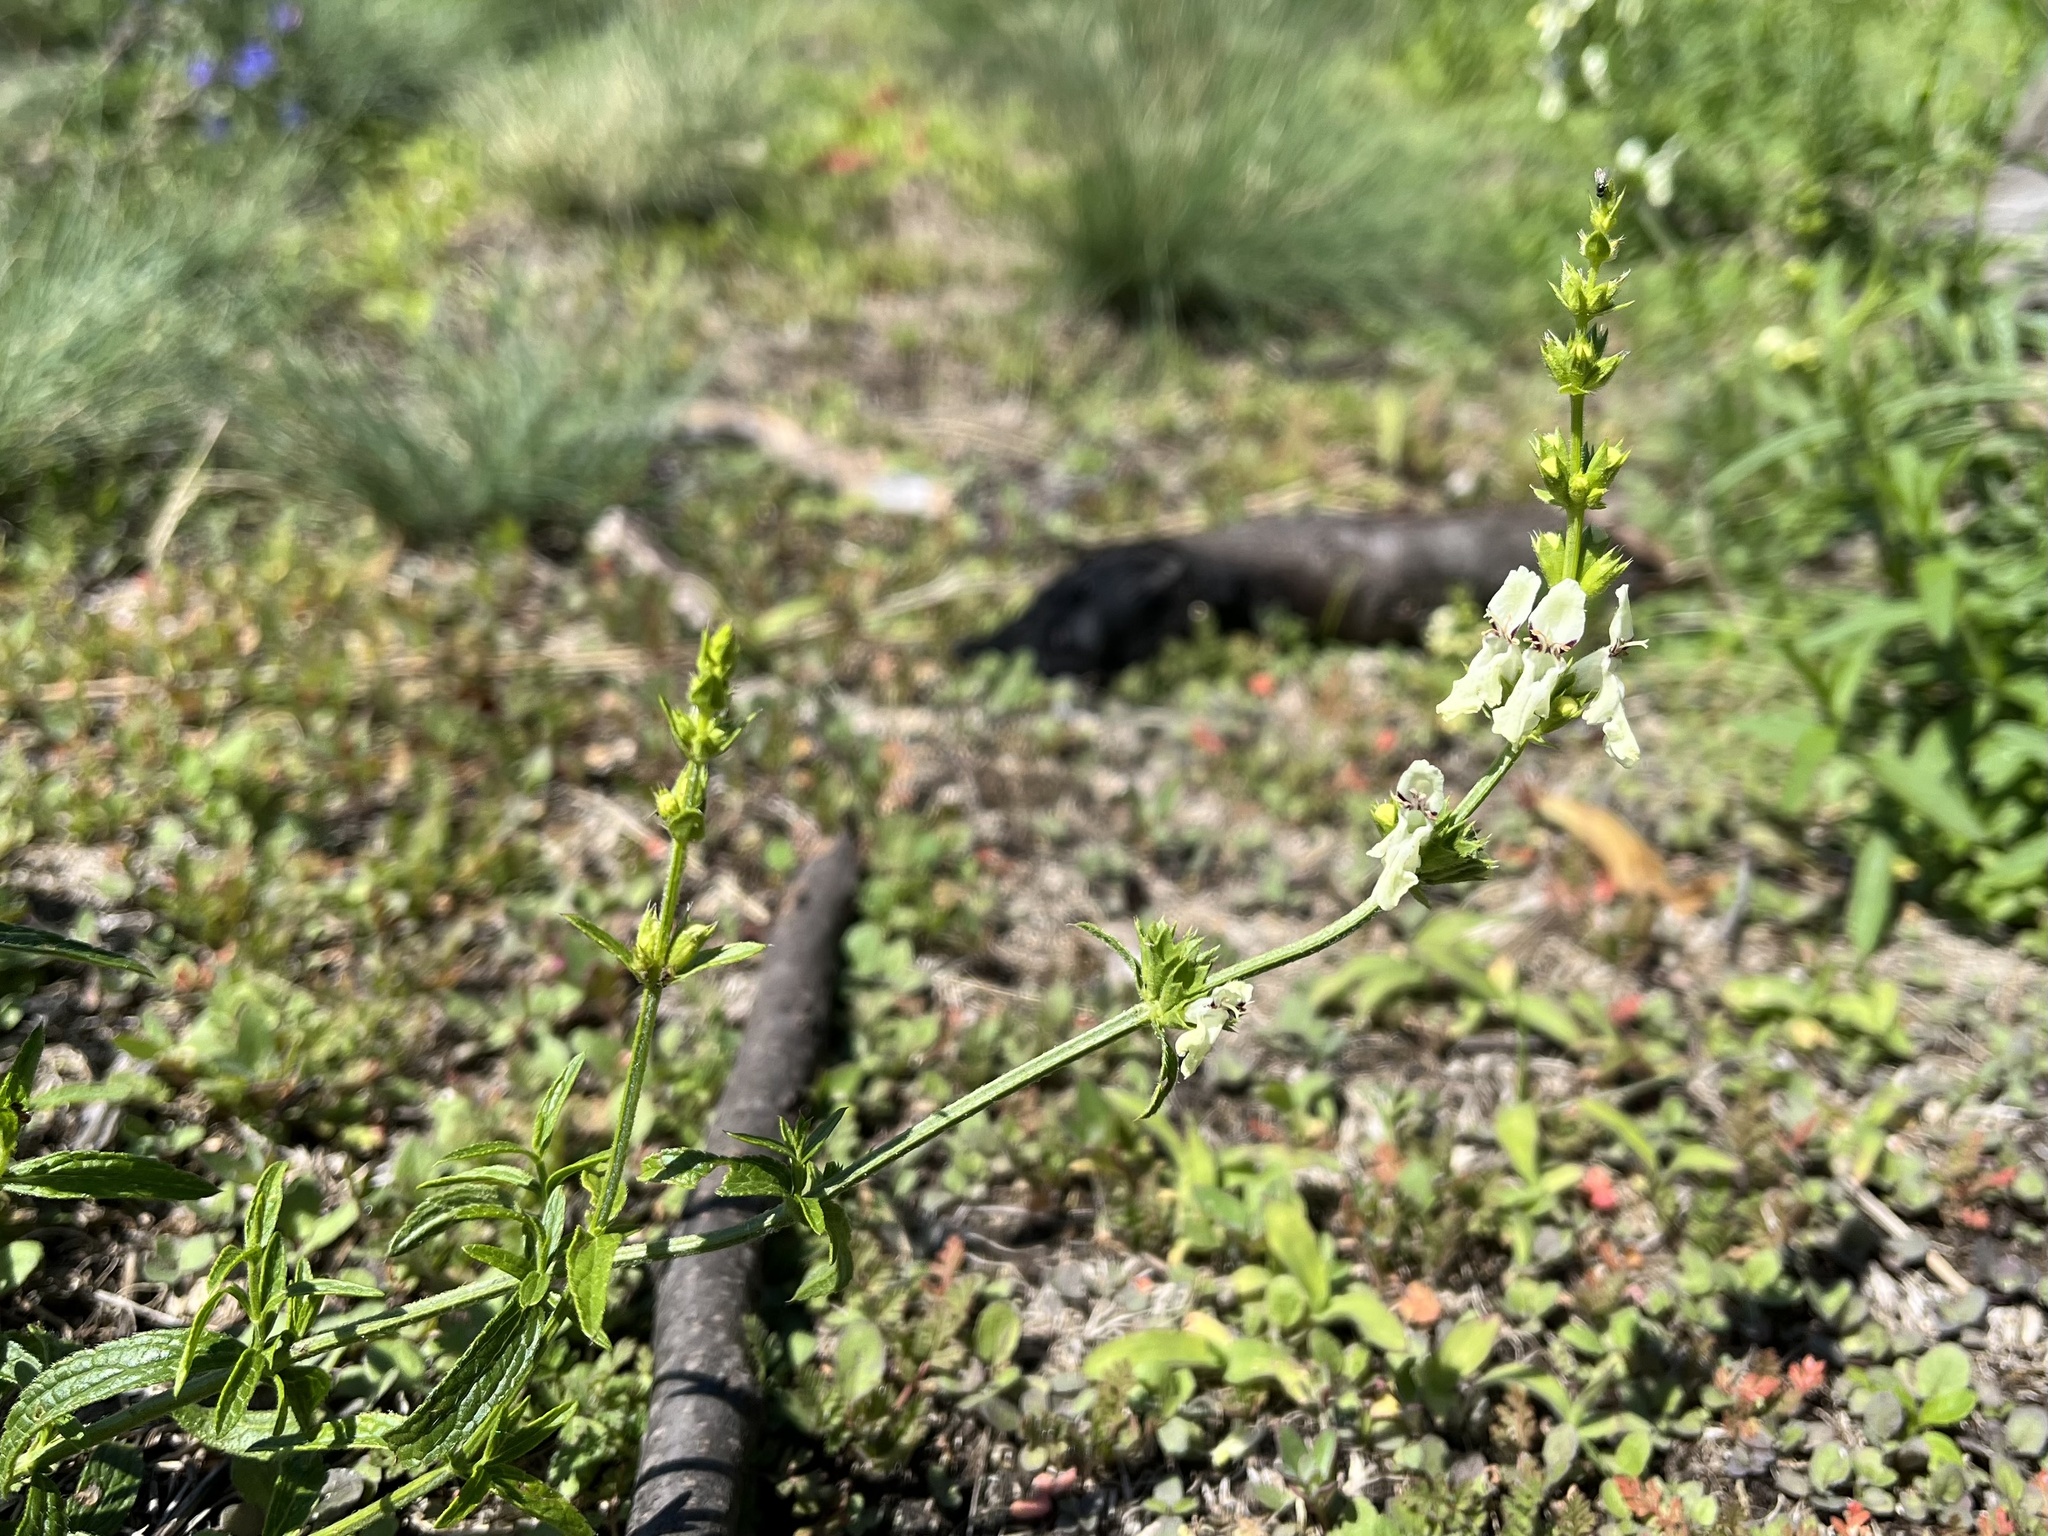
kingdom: Plantae
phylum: Tracheophyta
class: Magnoliopsida
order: Lamiales
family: Lamiaceae
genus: Stachys
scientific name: Stachys recta
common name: Perennial yellow-woundwort
